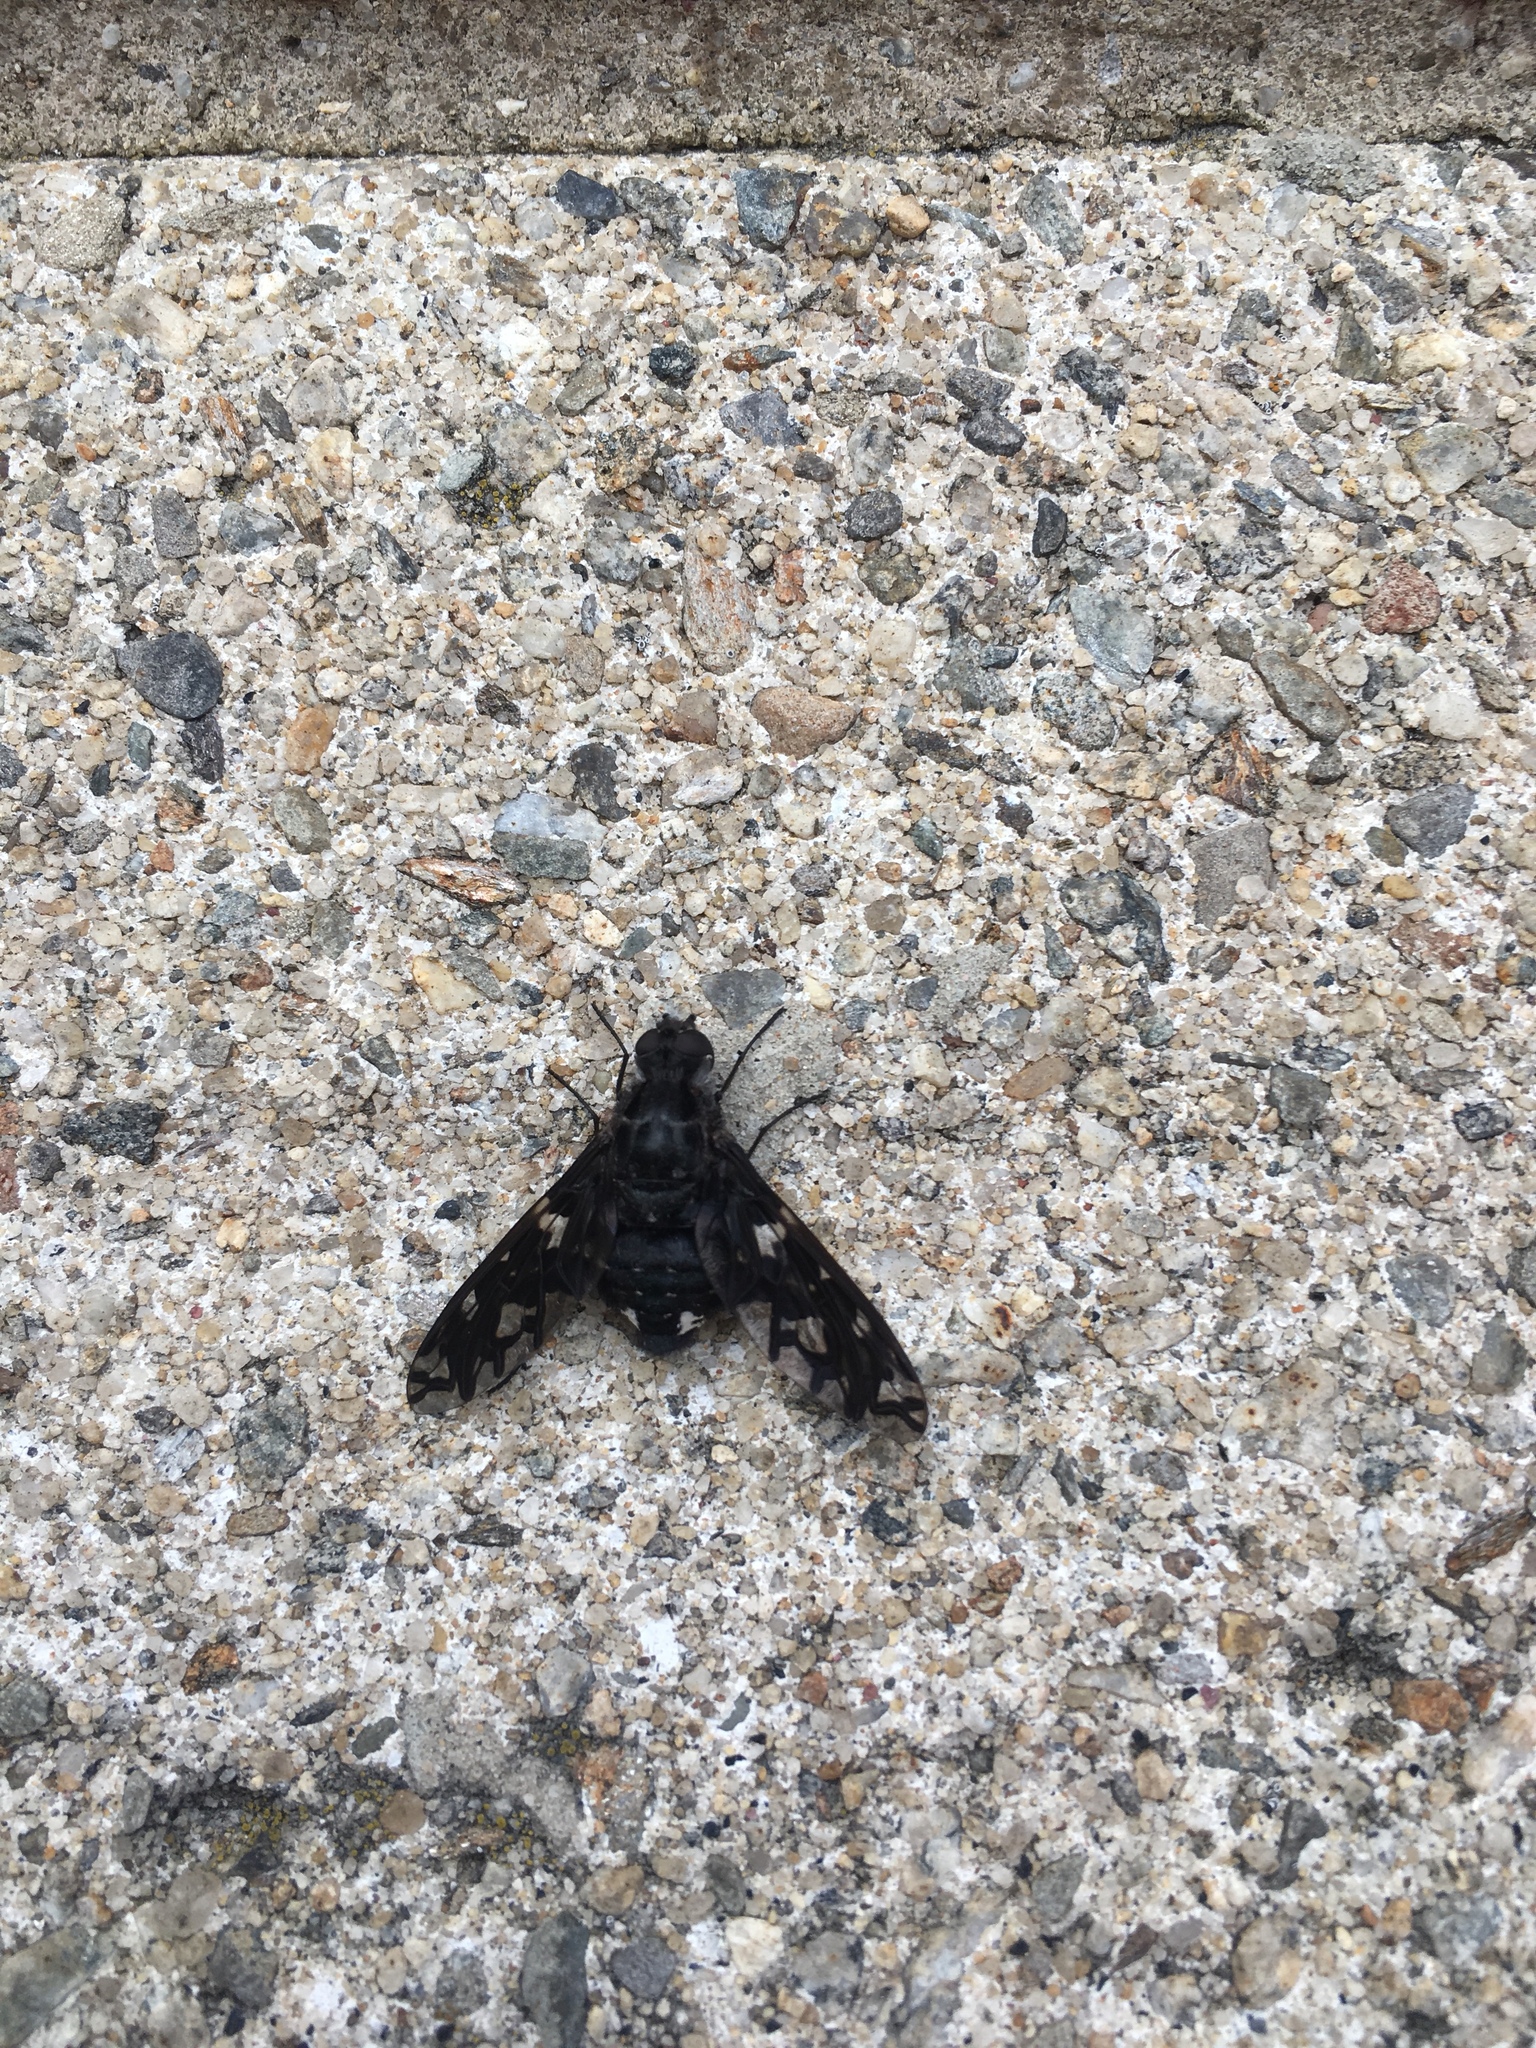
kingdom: Animalia
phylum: Arthropoda
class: Insecta
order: Diptera
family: Bombyliidae
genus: Xenox
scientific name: Xenox tigrinus
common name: Tiger bee fly
